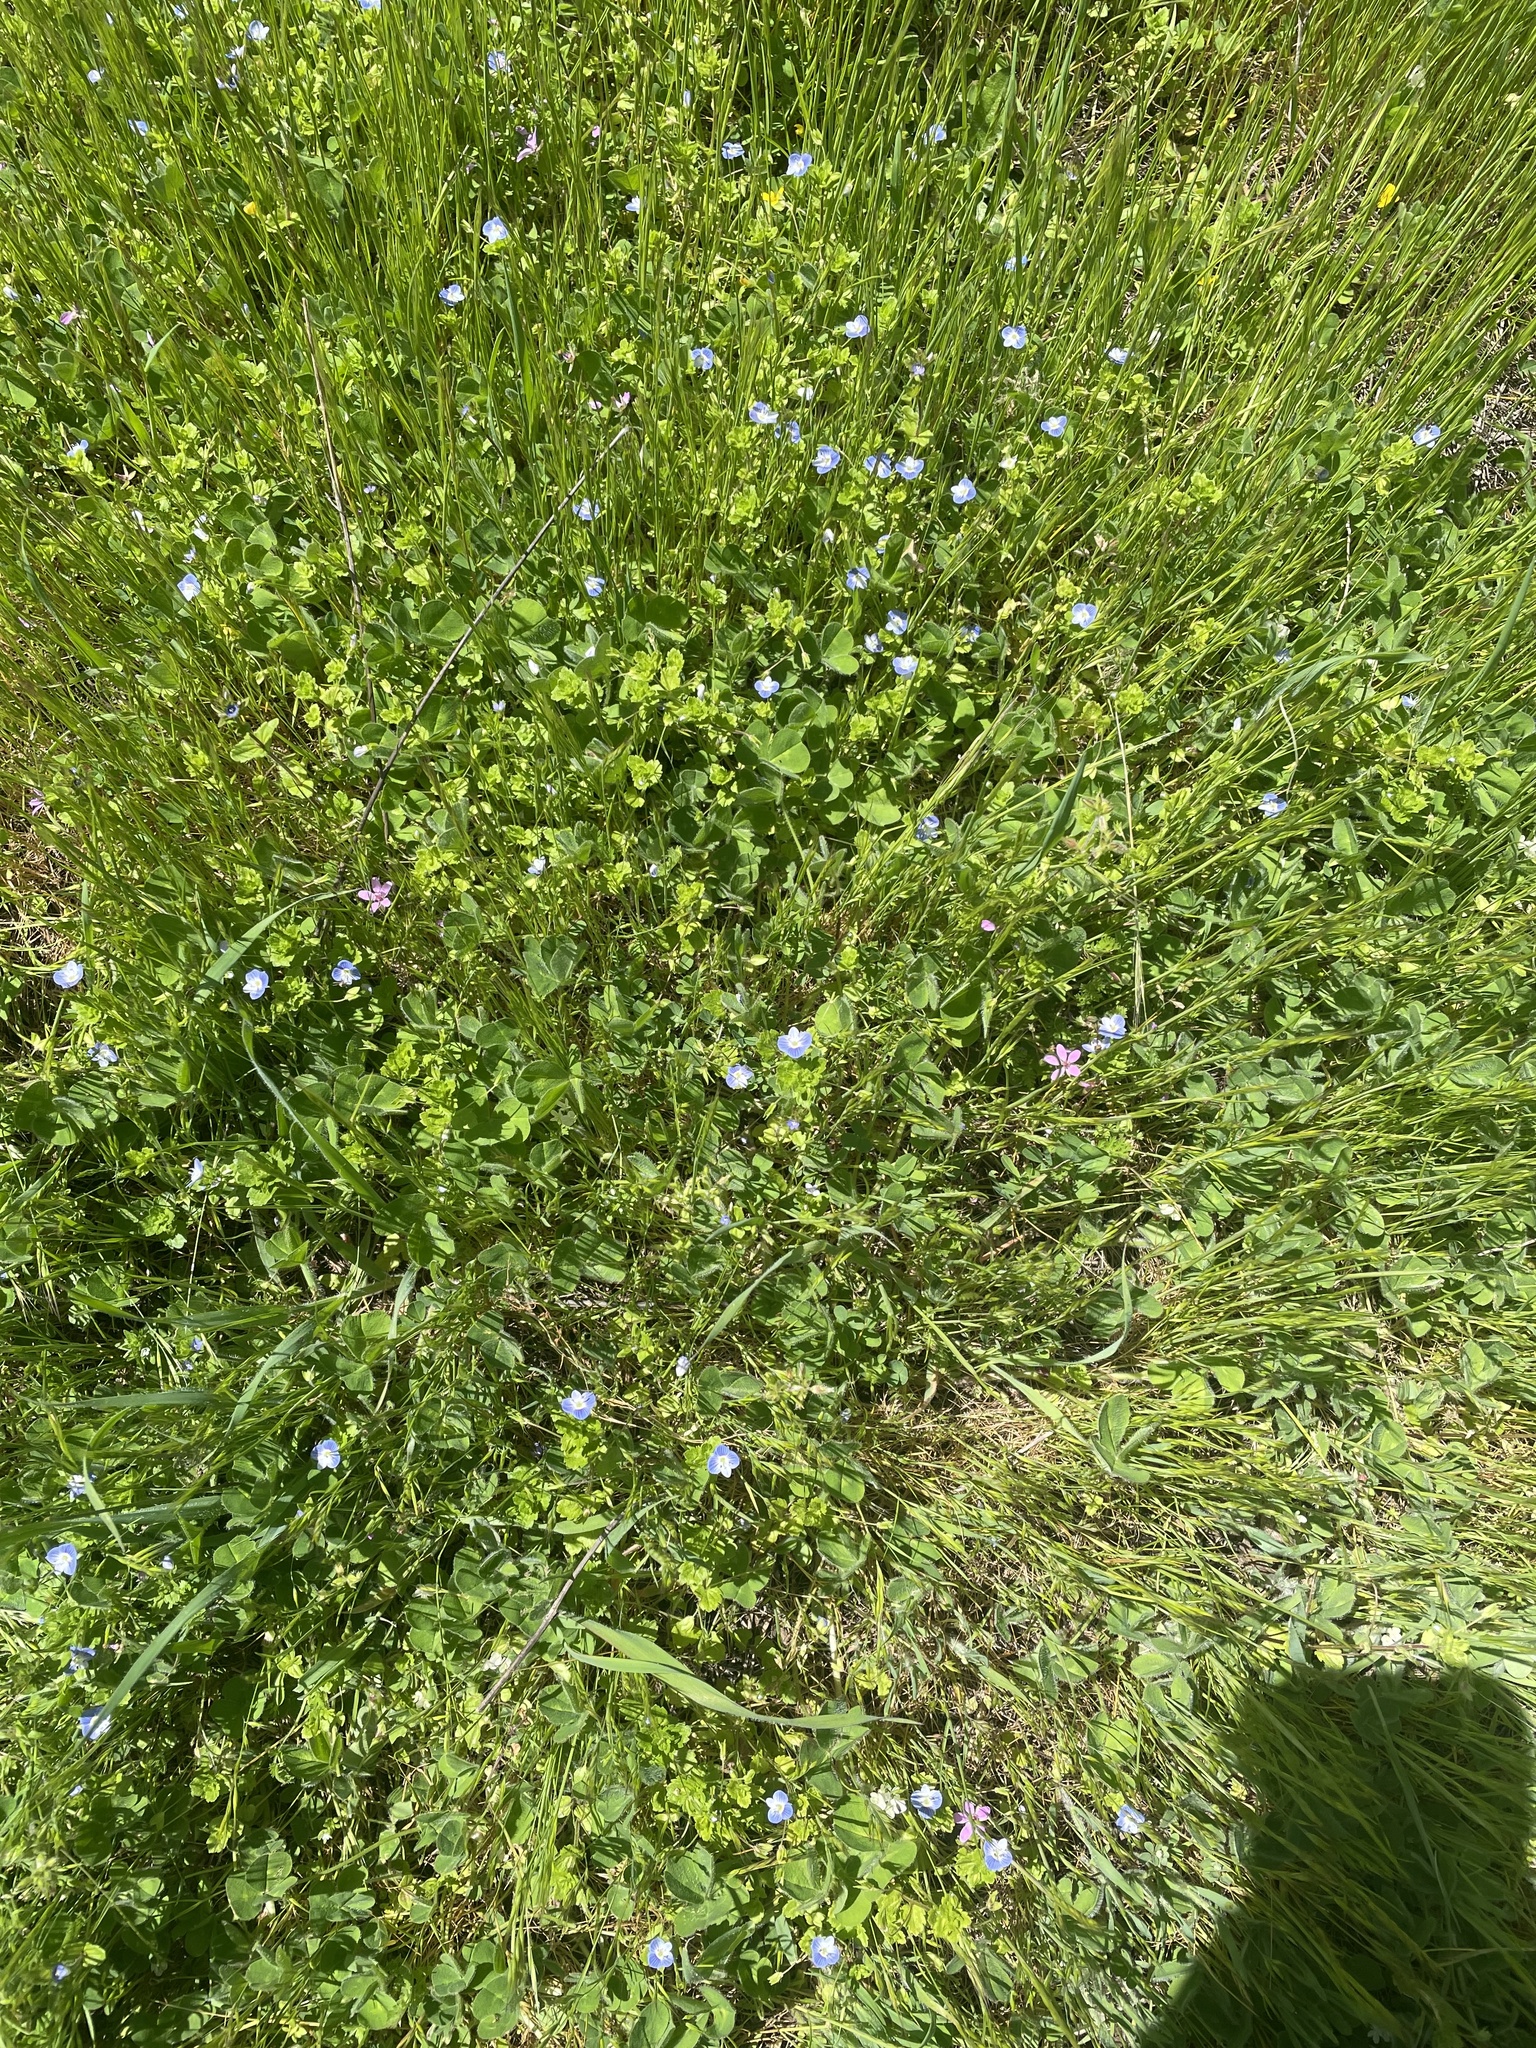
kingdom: Plantae
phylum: Tracheophyta
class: Magnoliopsida
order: Lamiales
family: Plantaginaceae
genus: Veronica
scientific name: Veronica persica
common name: Common field-speedwell
